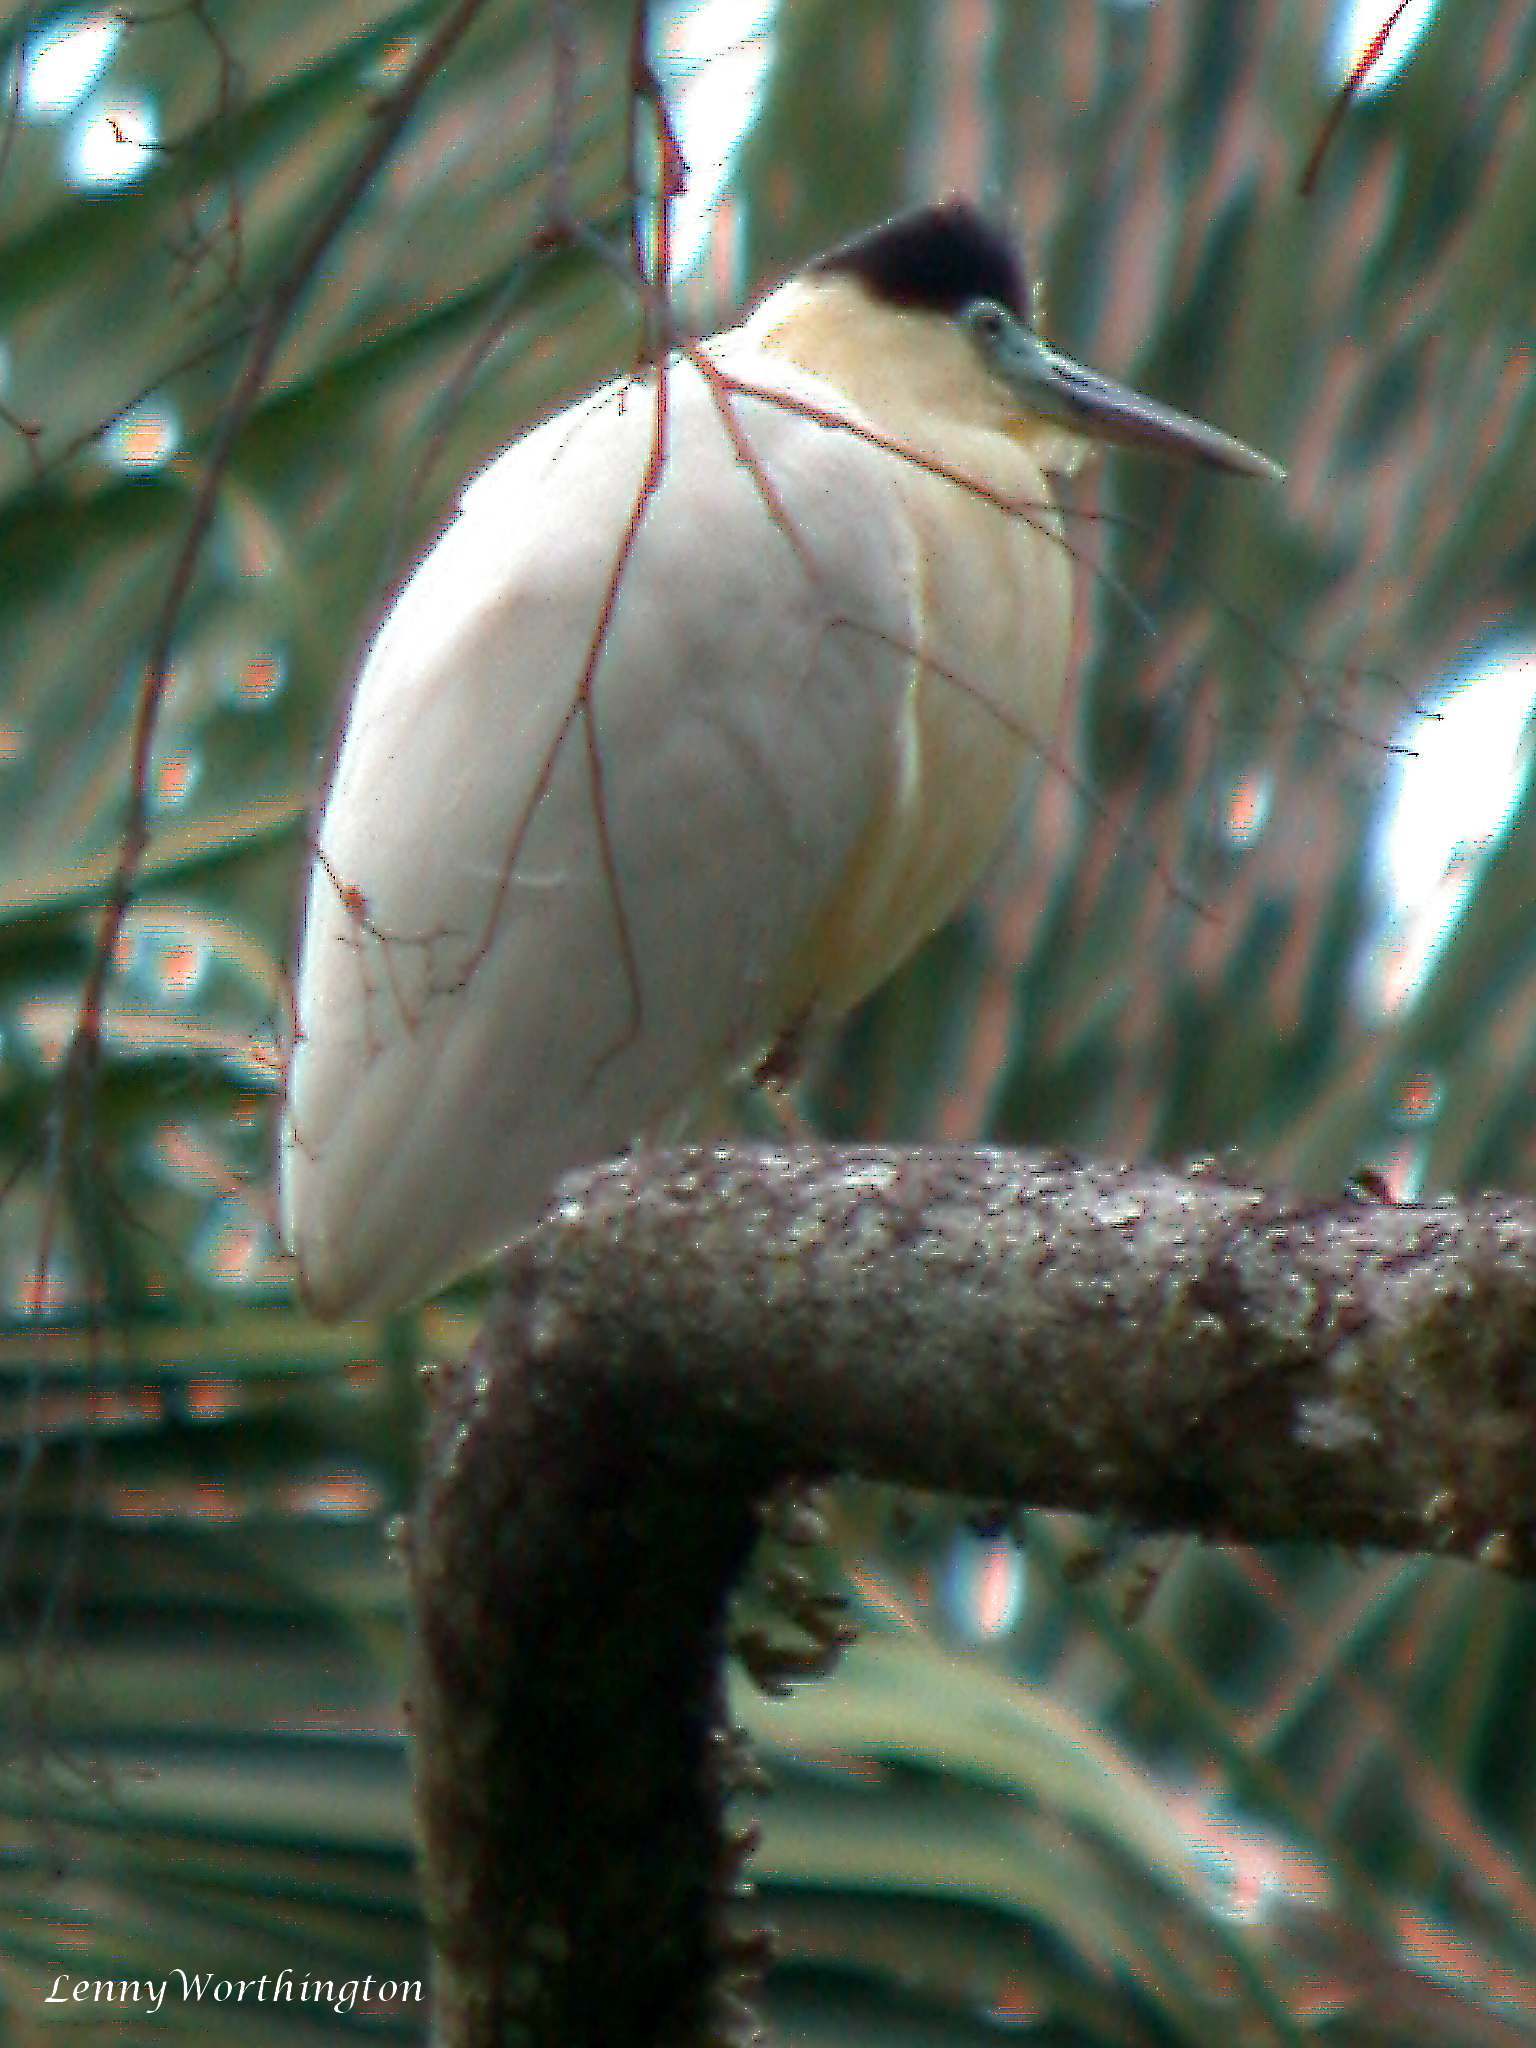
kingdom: Animalia
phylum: Chordata
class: Aves
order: Pelecaniformes
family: Ardeidae
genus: Pilherodius
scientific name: Pilherodius pileatus
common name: Capped heron
